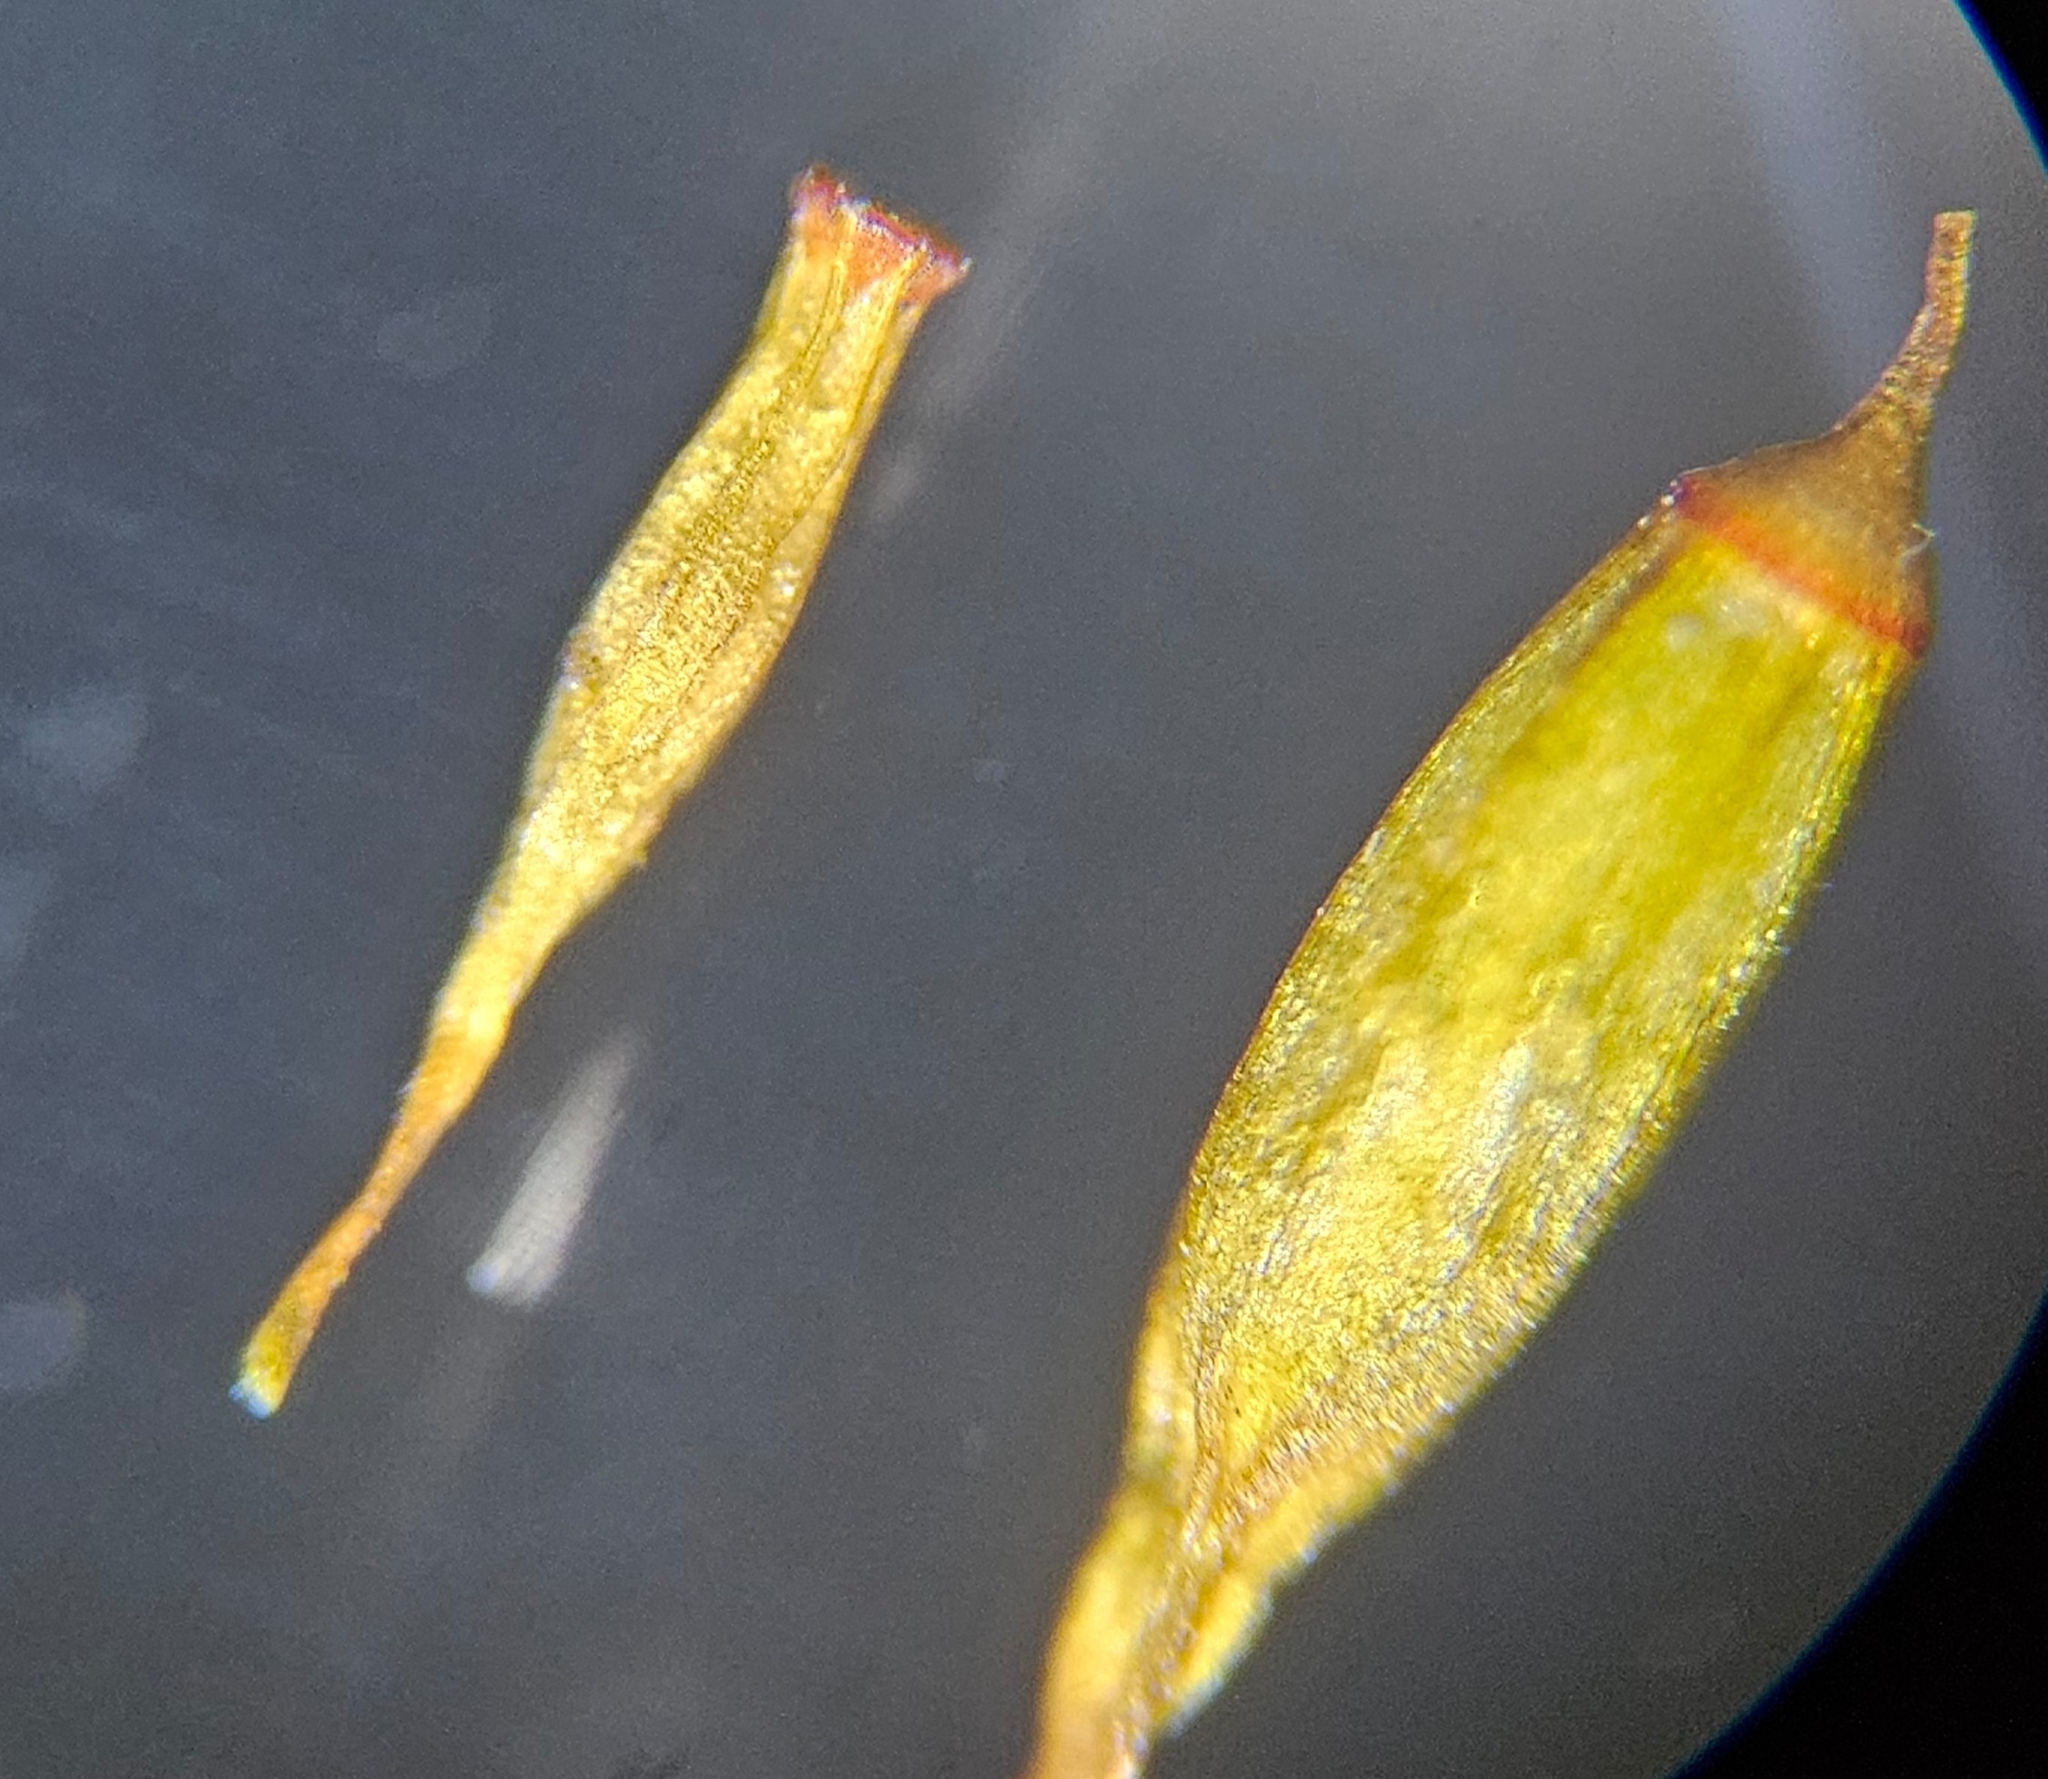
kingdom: Plantae
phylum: Bryophyta
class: Bryopsida
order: Orthotrichales
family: Orthotrichaceae
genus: Lewinskya
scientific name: Lewinskya affinis
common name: Wood bristle-moss
